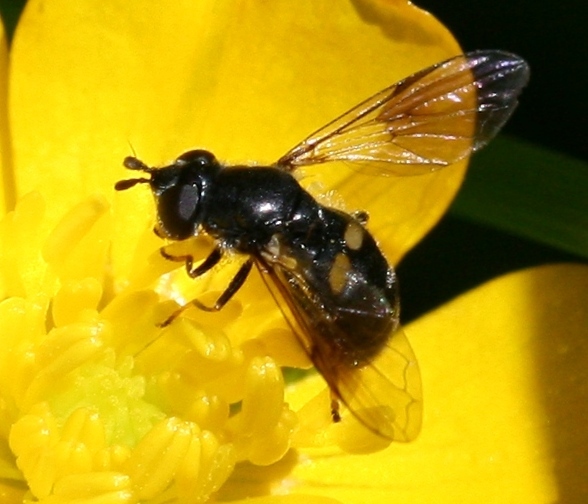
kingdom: Animalia
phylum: Arthropoda
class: Insecta
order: Diptera
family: Syrphidae
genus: Pipiza
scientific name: Pipiza
